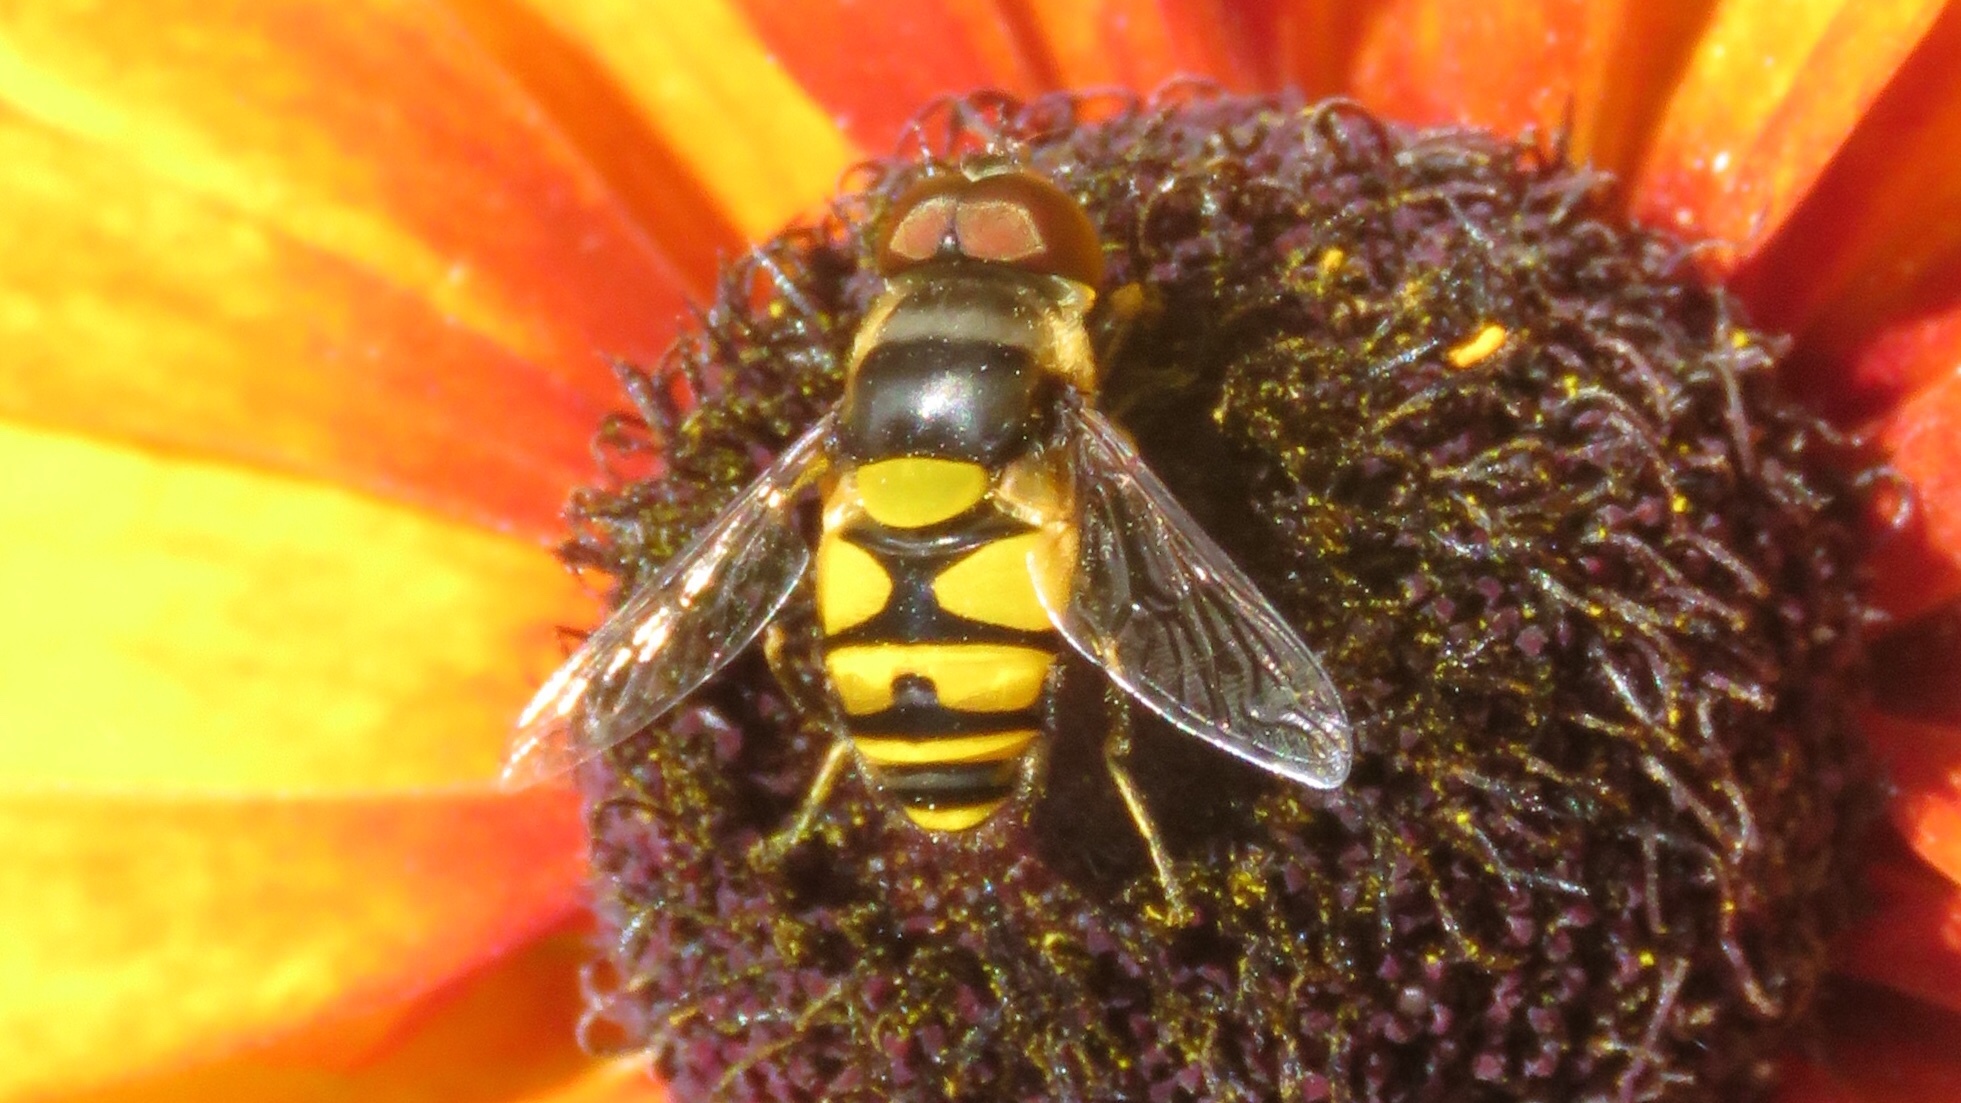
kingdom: Animalia
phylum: Arthropoda
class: Insecta
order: Diptera
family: Syrphidae
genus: Eristalis
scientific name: Eristalis transversa
